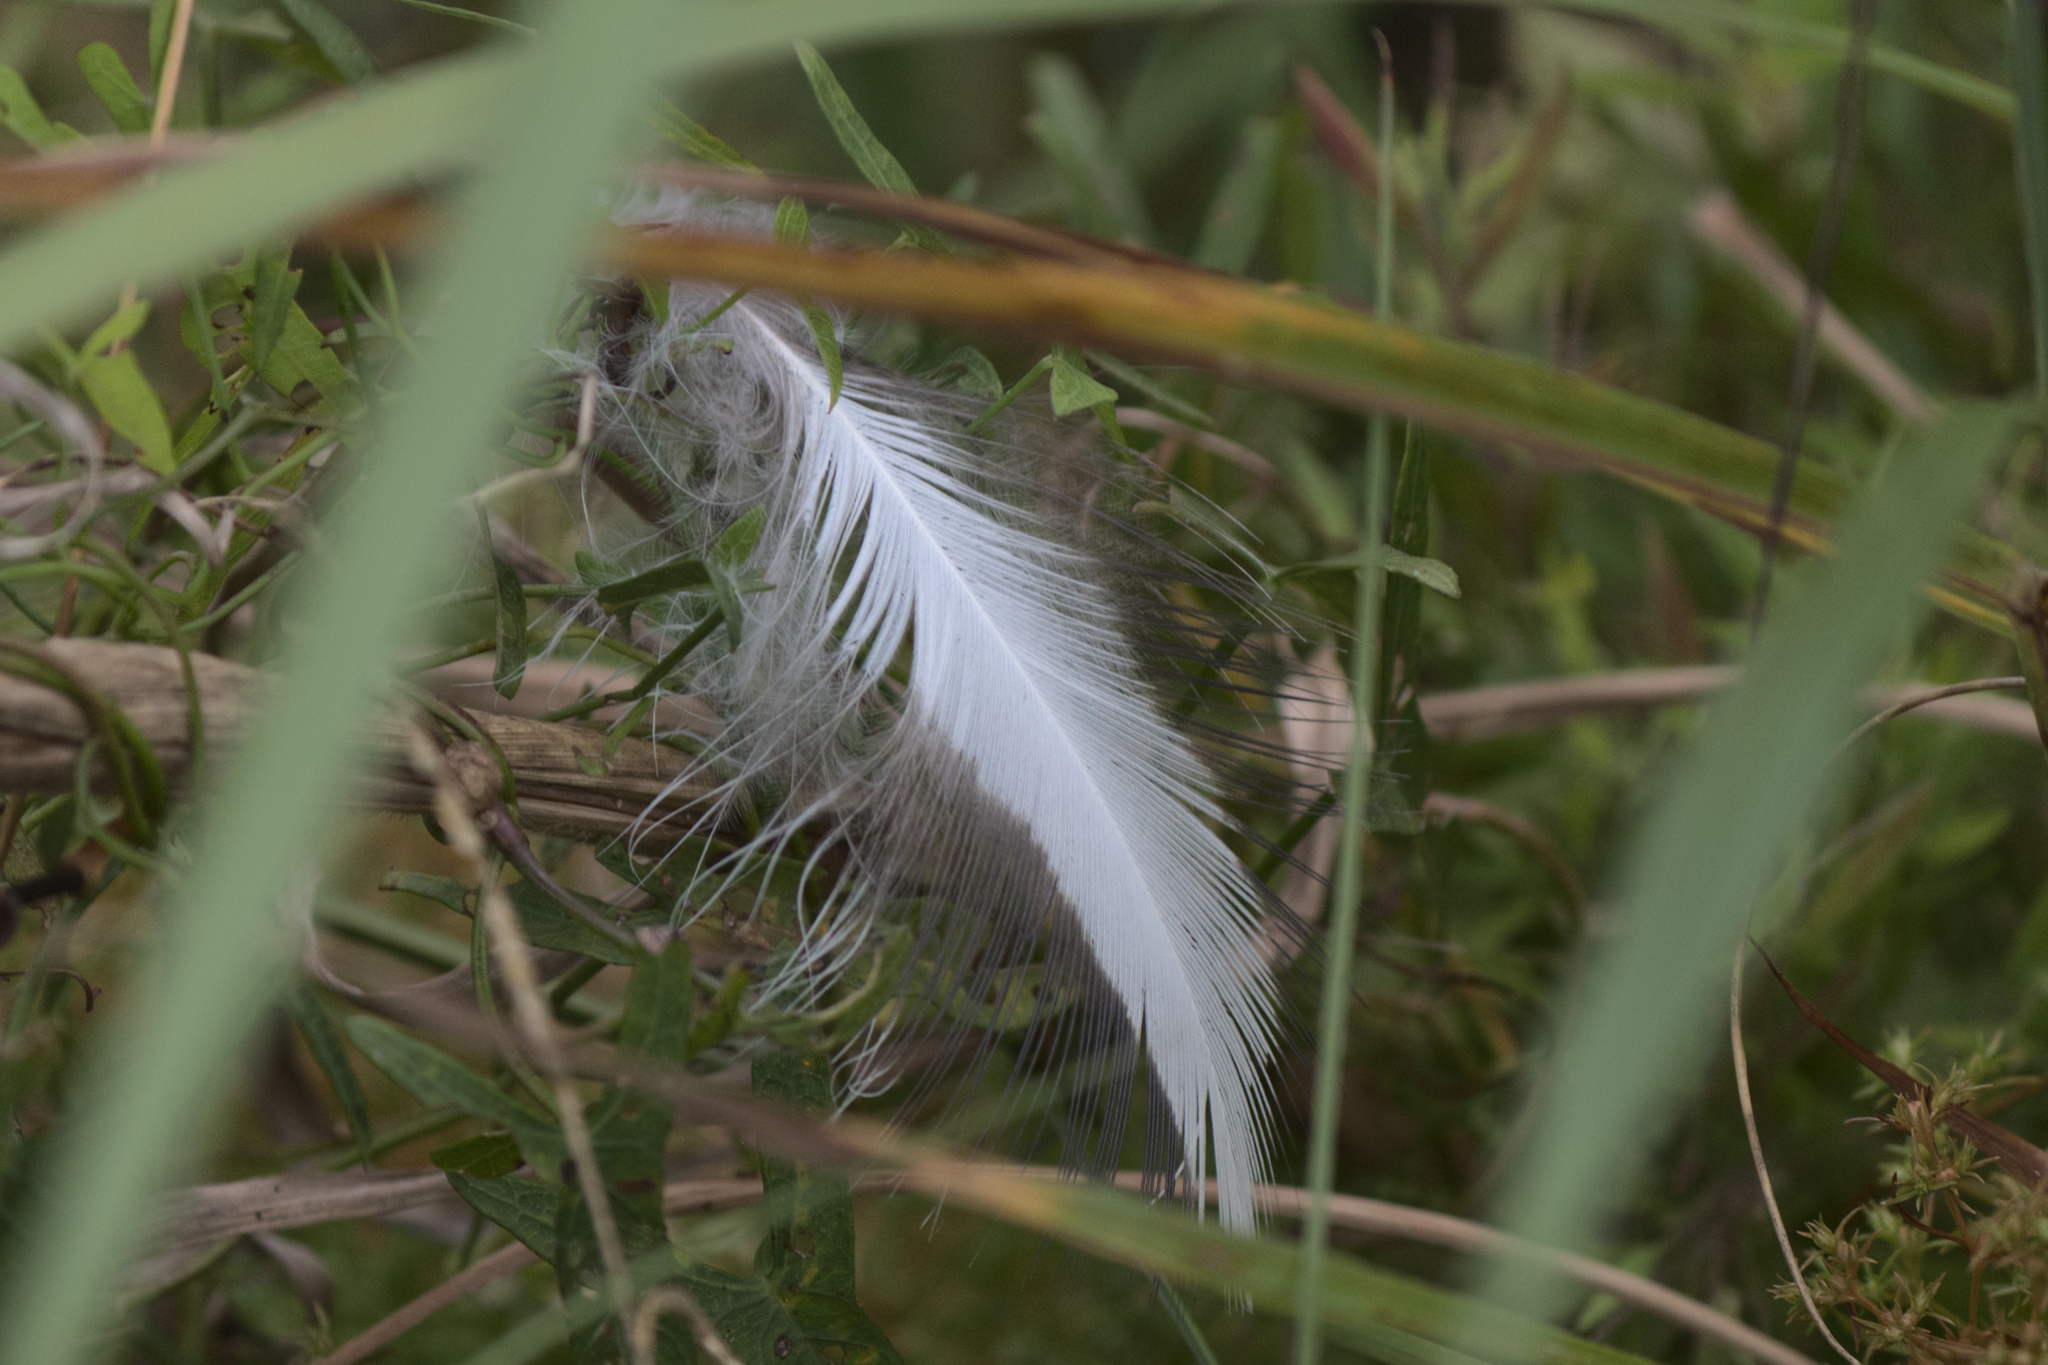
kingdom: Animalia
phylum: Chordata
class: Aves
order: Pelecaniformes
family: Ardeidae
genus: Ardea
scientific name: Ardea herodias
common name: Great blue heron
